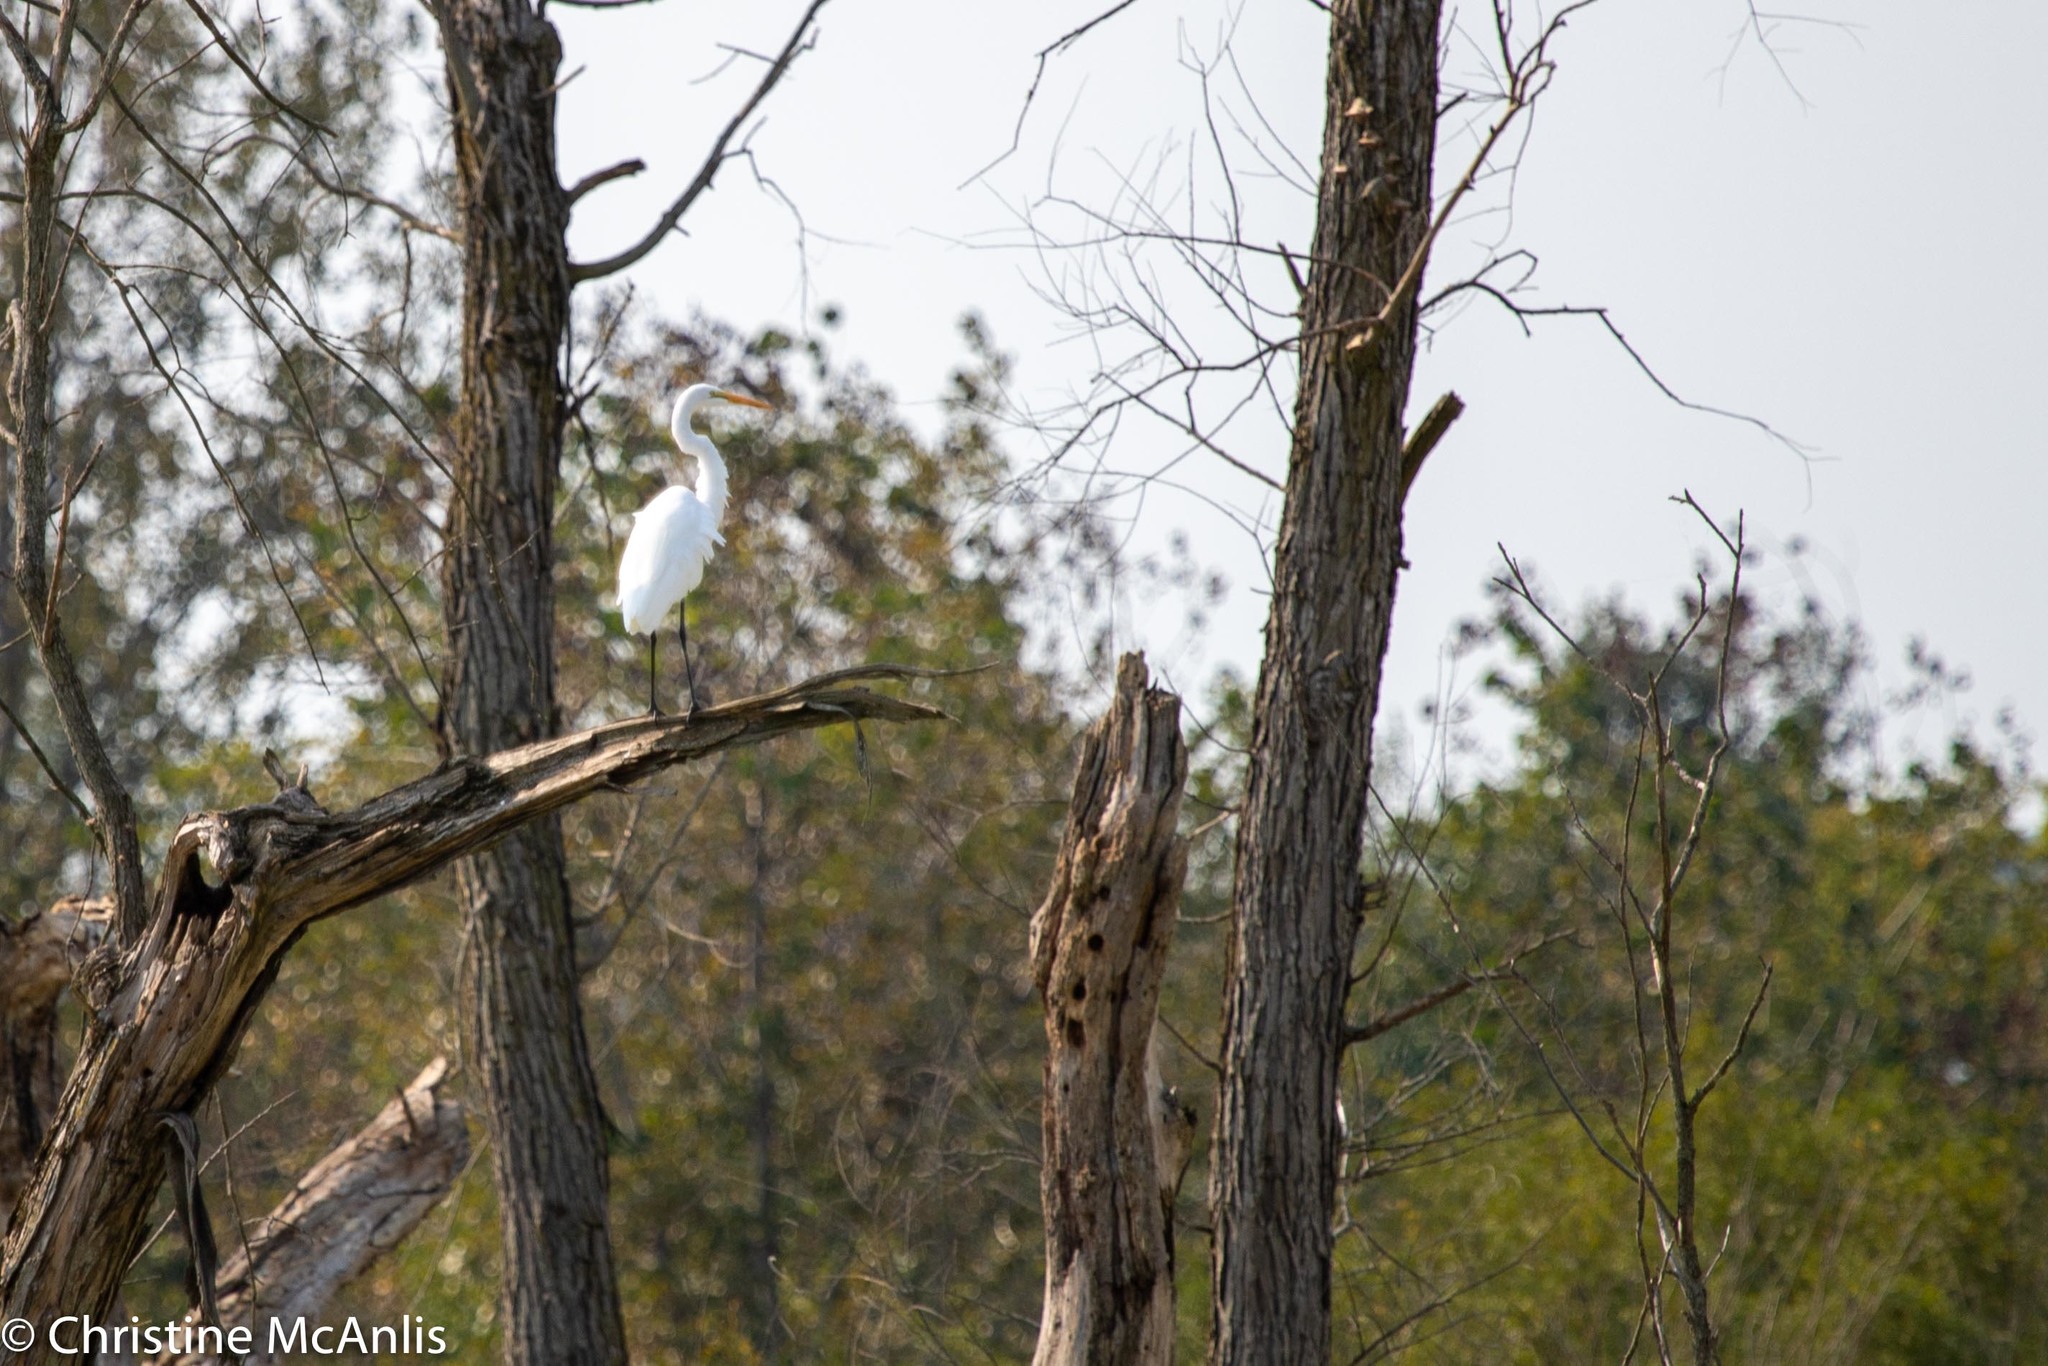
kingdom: Animalia
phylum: Chordata
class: Aves
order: Pelecaniformes
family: Ardeidae
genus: Ardea
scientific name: Ardea alba
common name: Great egret
